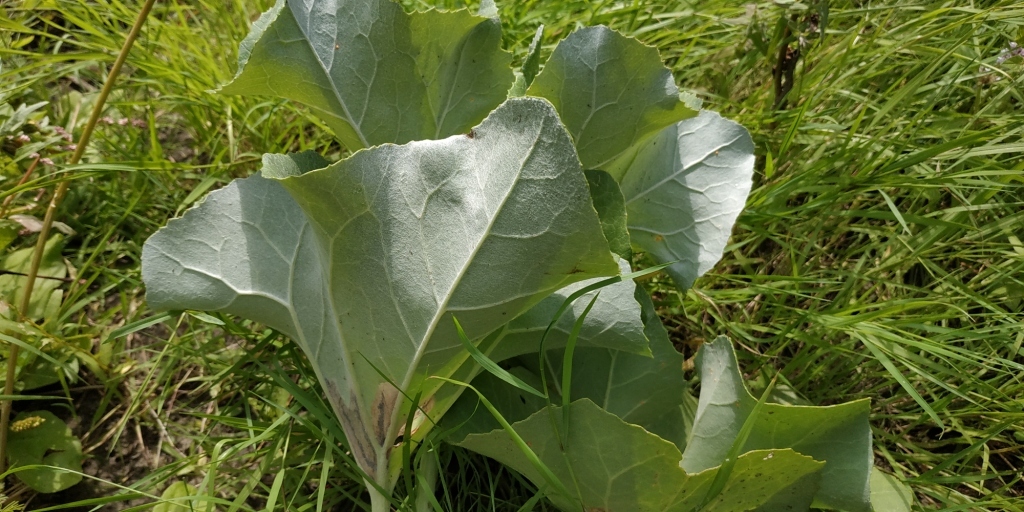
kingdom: Plantae
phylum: Tracheophyta
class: Magnoliopsida
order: Asterales
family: Asteraceae
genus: Petasites
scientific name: Petasites spurius
